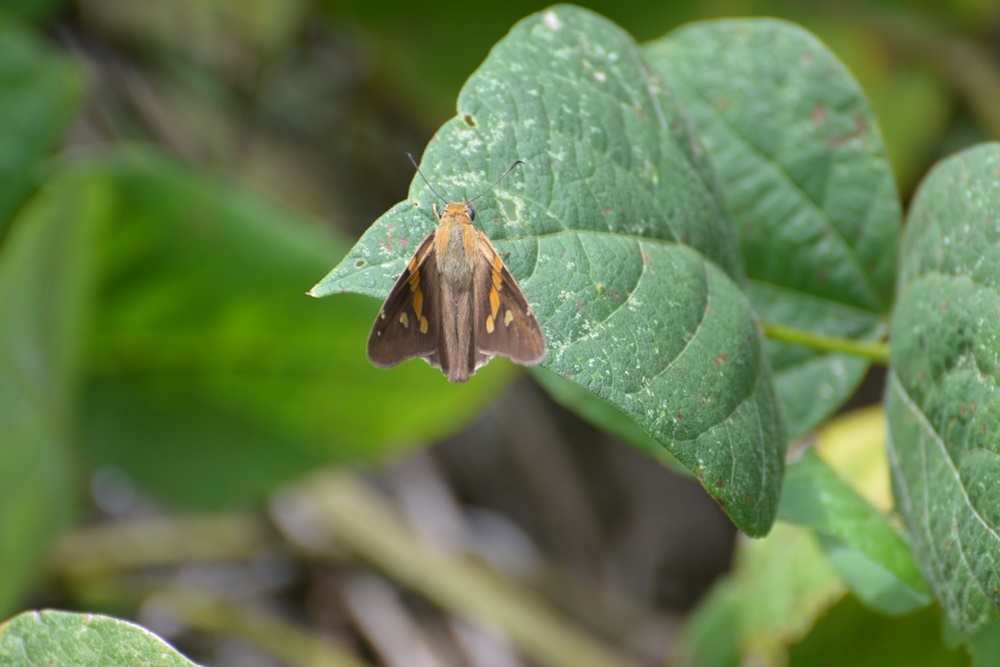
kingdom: Animalia
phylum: Arthropoda
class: Insecta
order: Lepidoptera
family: Hesperiidae
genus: Aguna
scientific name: Aguna asander
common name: Gold-spotted aguna
